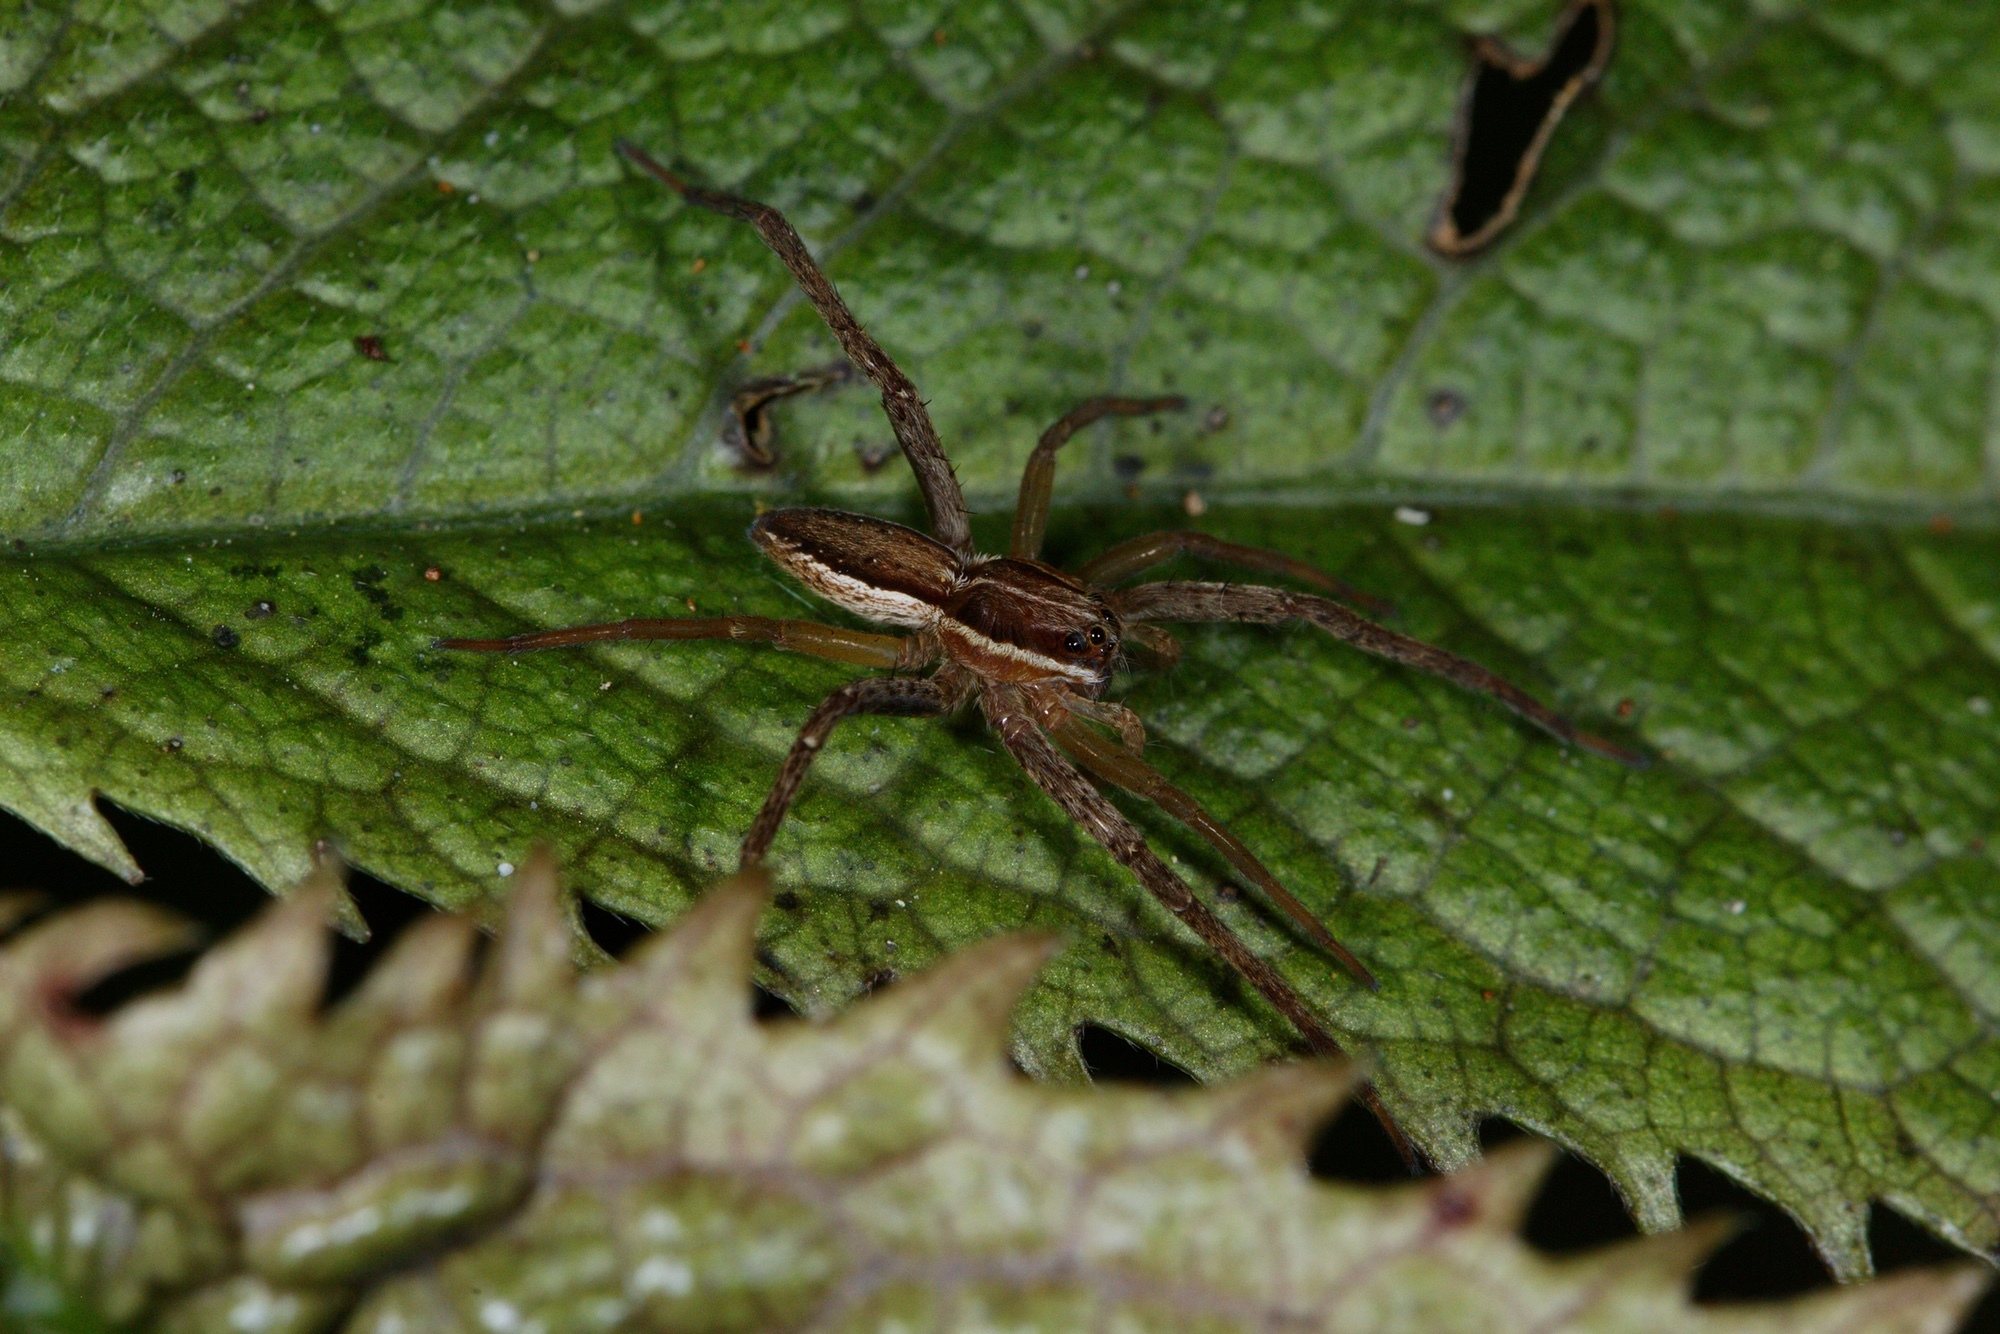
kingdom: Animalia
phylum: Arthropoda
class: Arachnida
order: Araneae
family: Pisauridae
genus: Dolomedes
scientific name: Dolomedes minor
